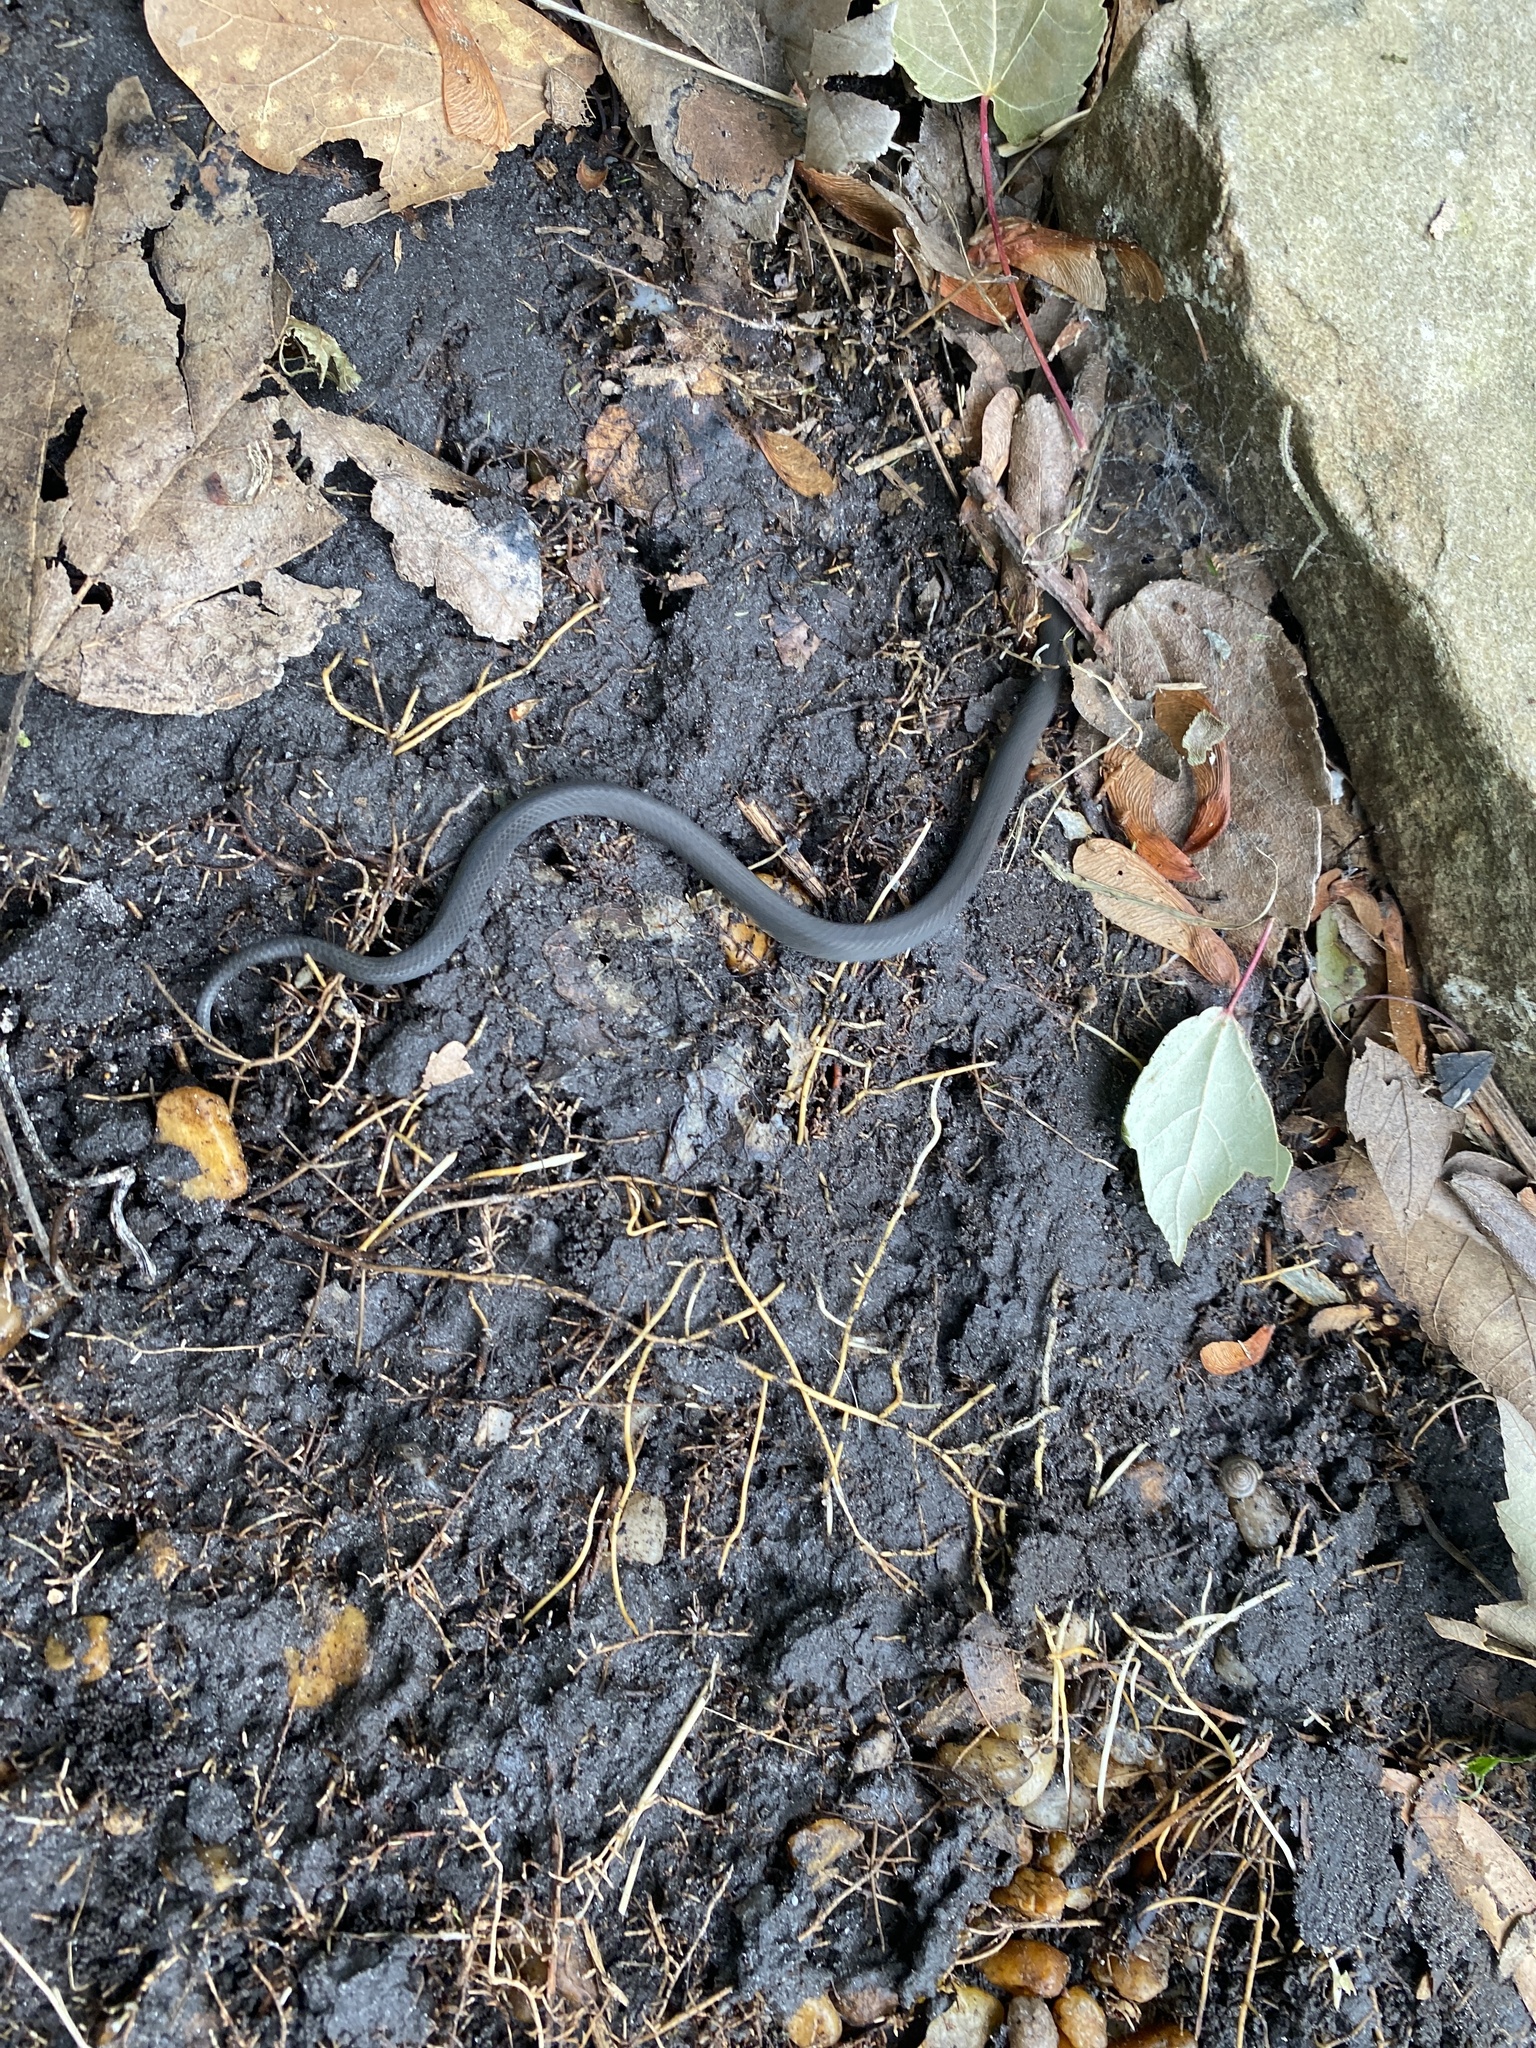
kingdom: Animalia
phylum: Chordata
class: Squamata
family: Colubridae
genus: Diadophis
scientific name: Diadophis punctatus
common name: Ringneck snake
